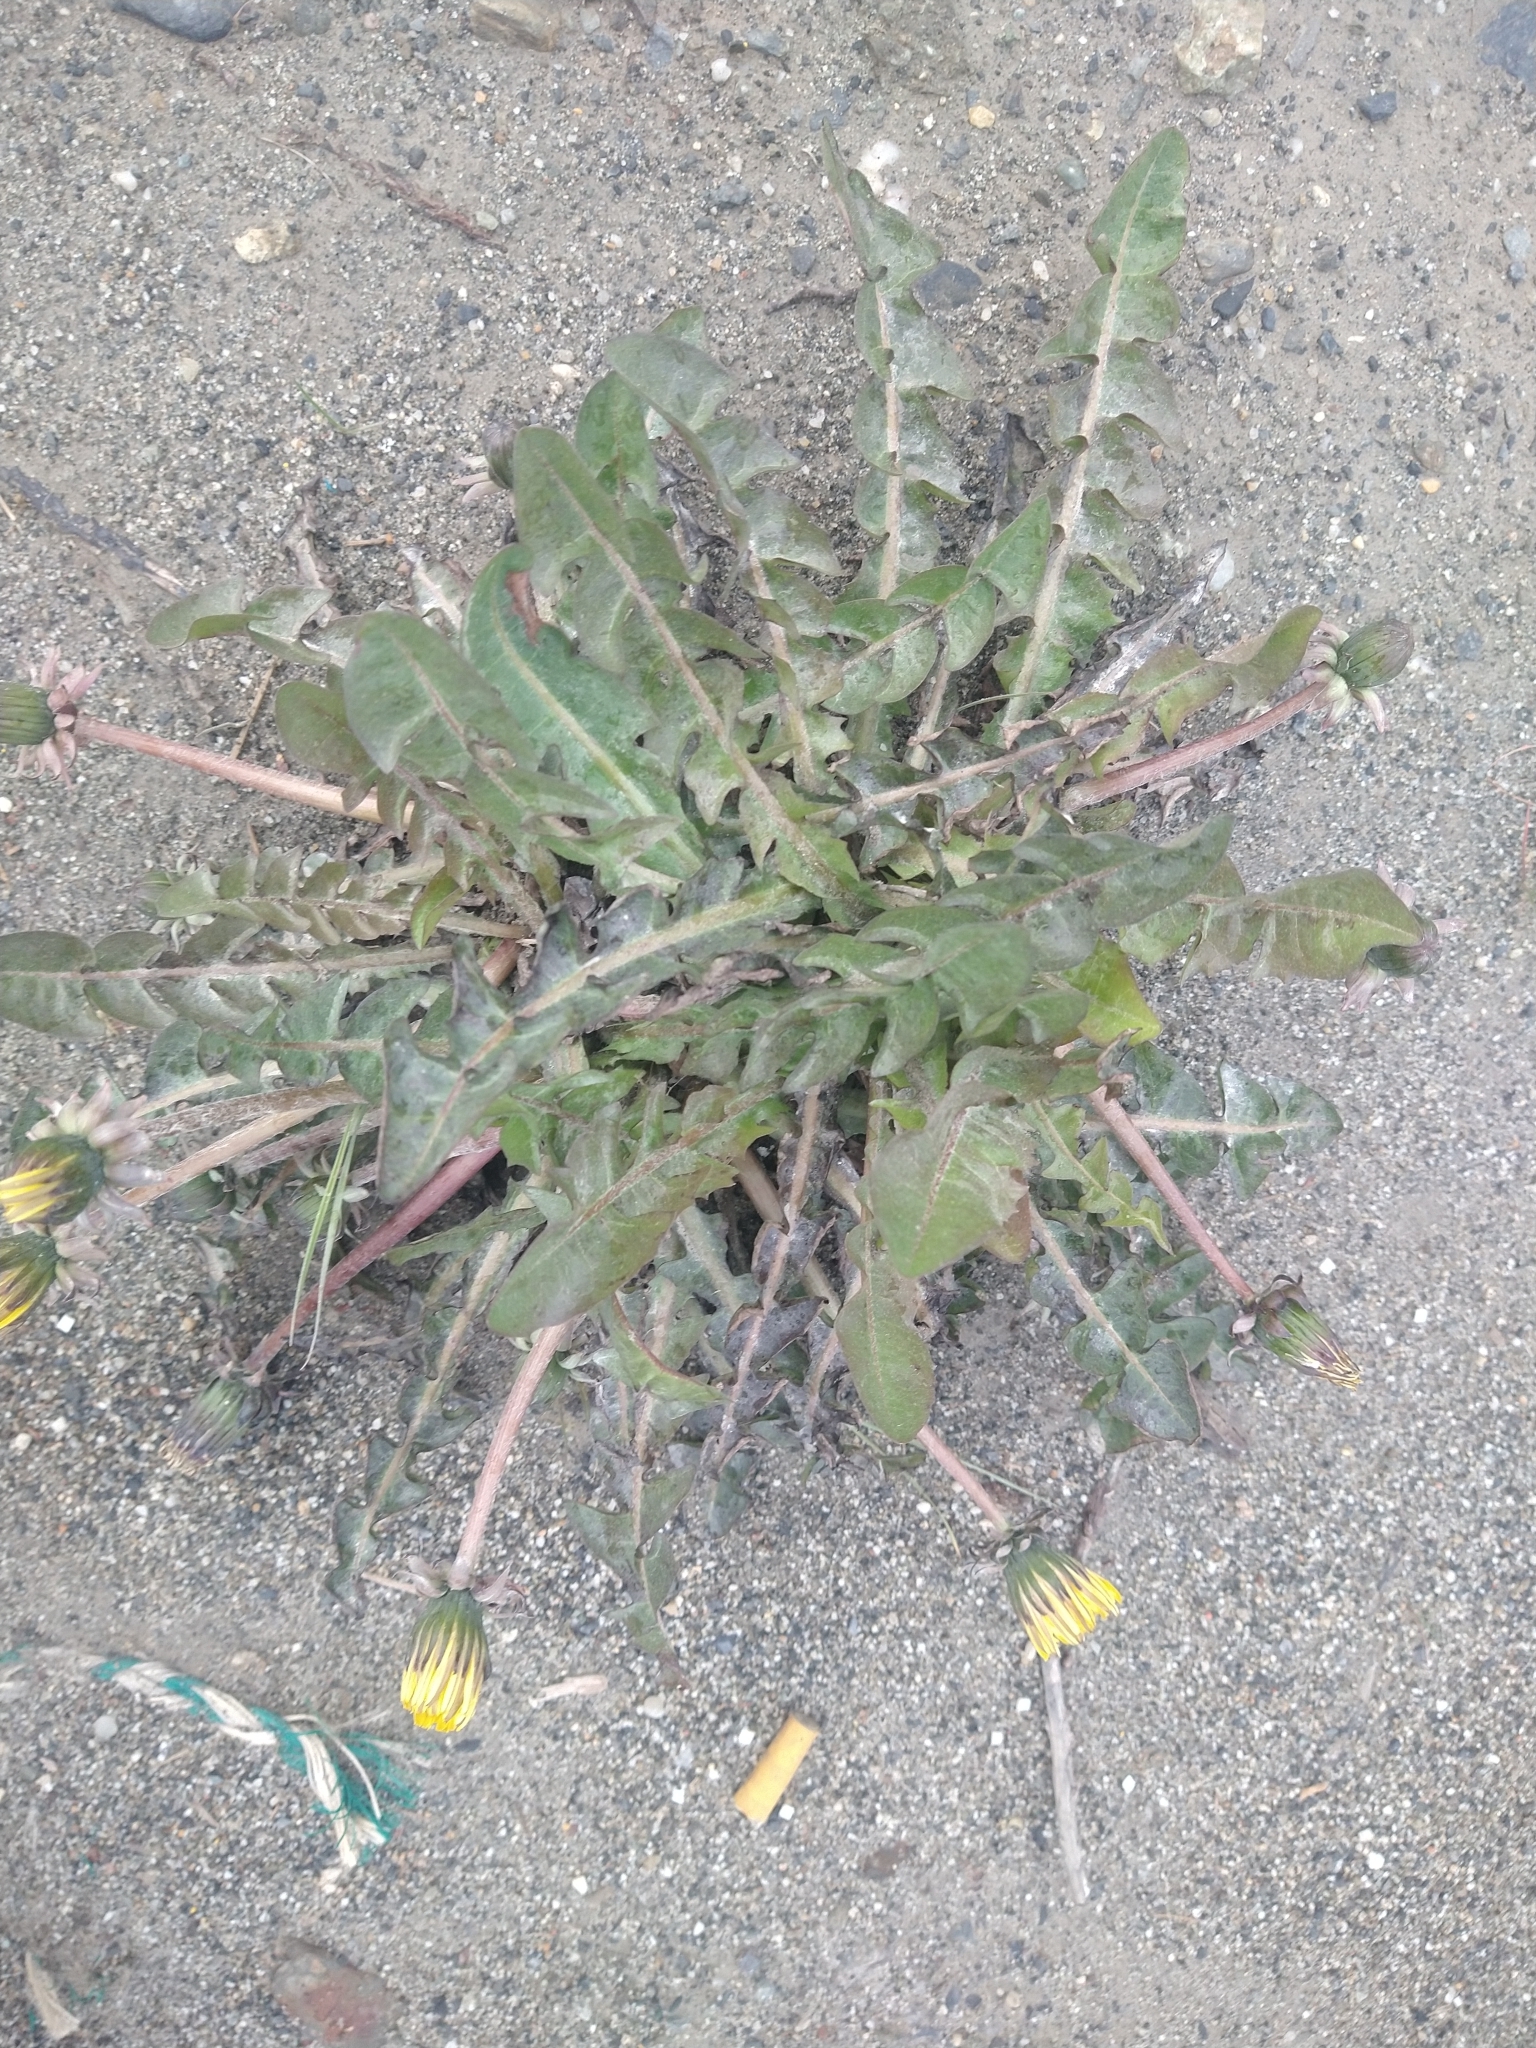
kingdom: Plantae
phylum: Tracheophyta
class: Magnoliopsida
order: Asterales
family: Asteraceae
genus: Taraxacum
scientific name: Taraxacum officinale
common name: Common dandelion
